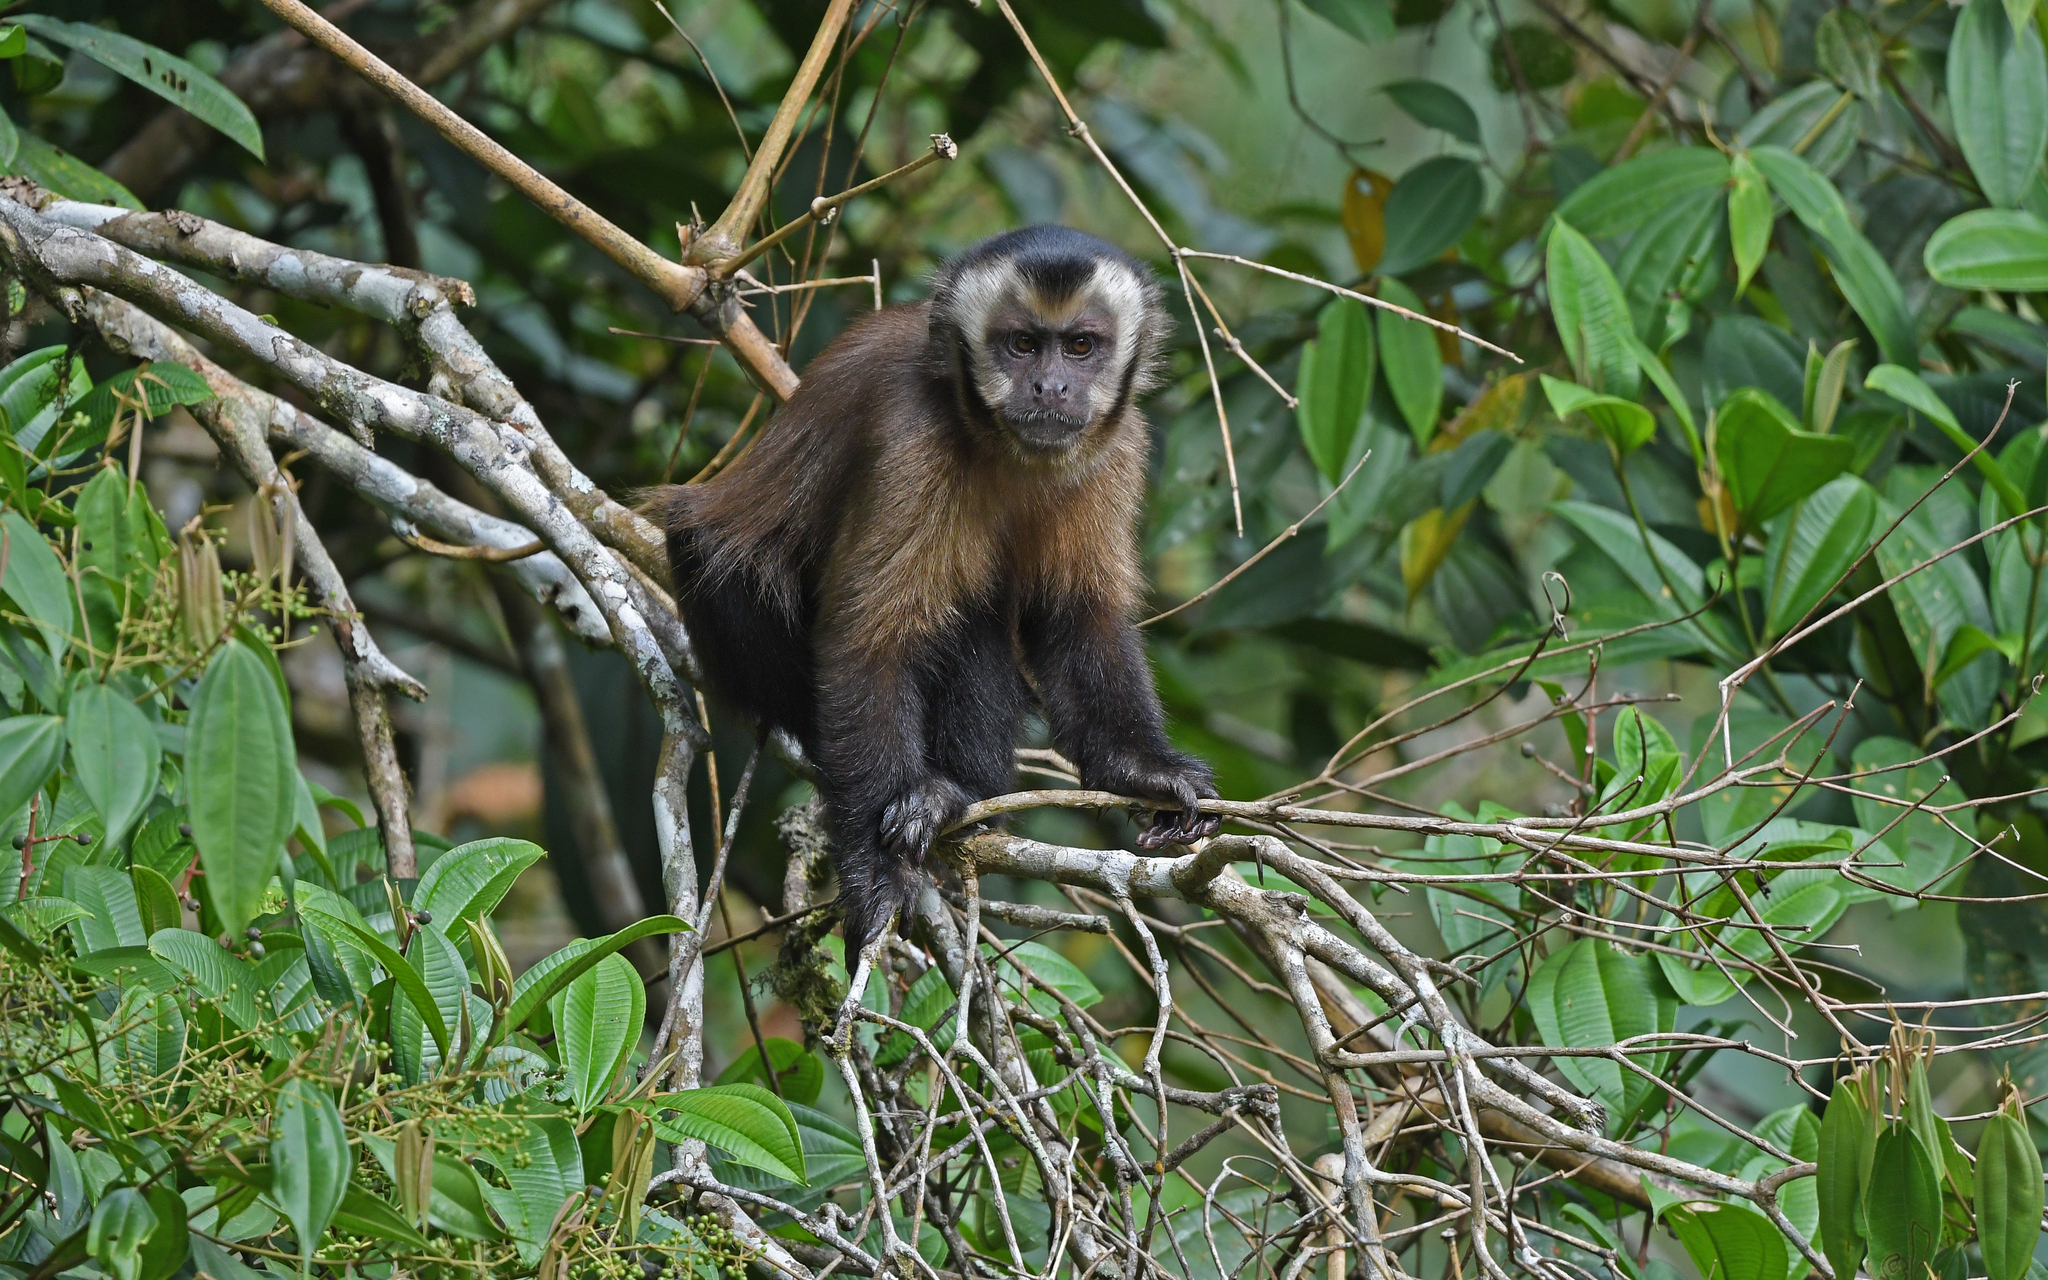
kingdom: Animalia
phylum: Chordata
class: Mammalia
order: Primates
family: Cebidae
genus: Sapajus
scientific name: Sapajus apella
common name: Tufted capuchin
